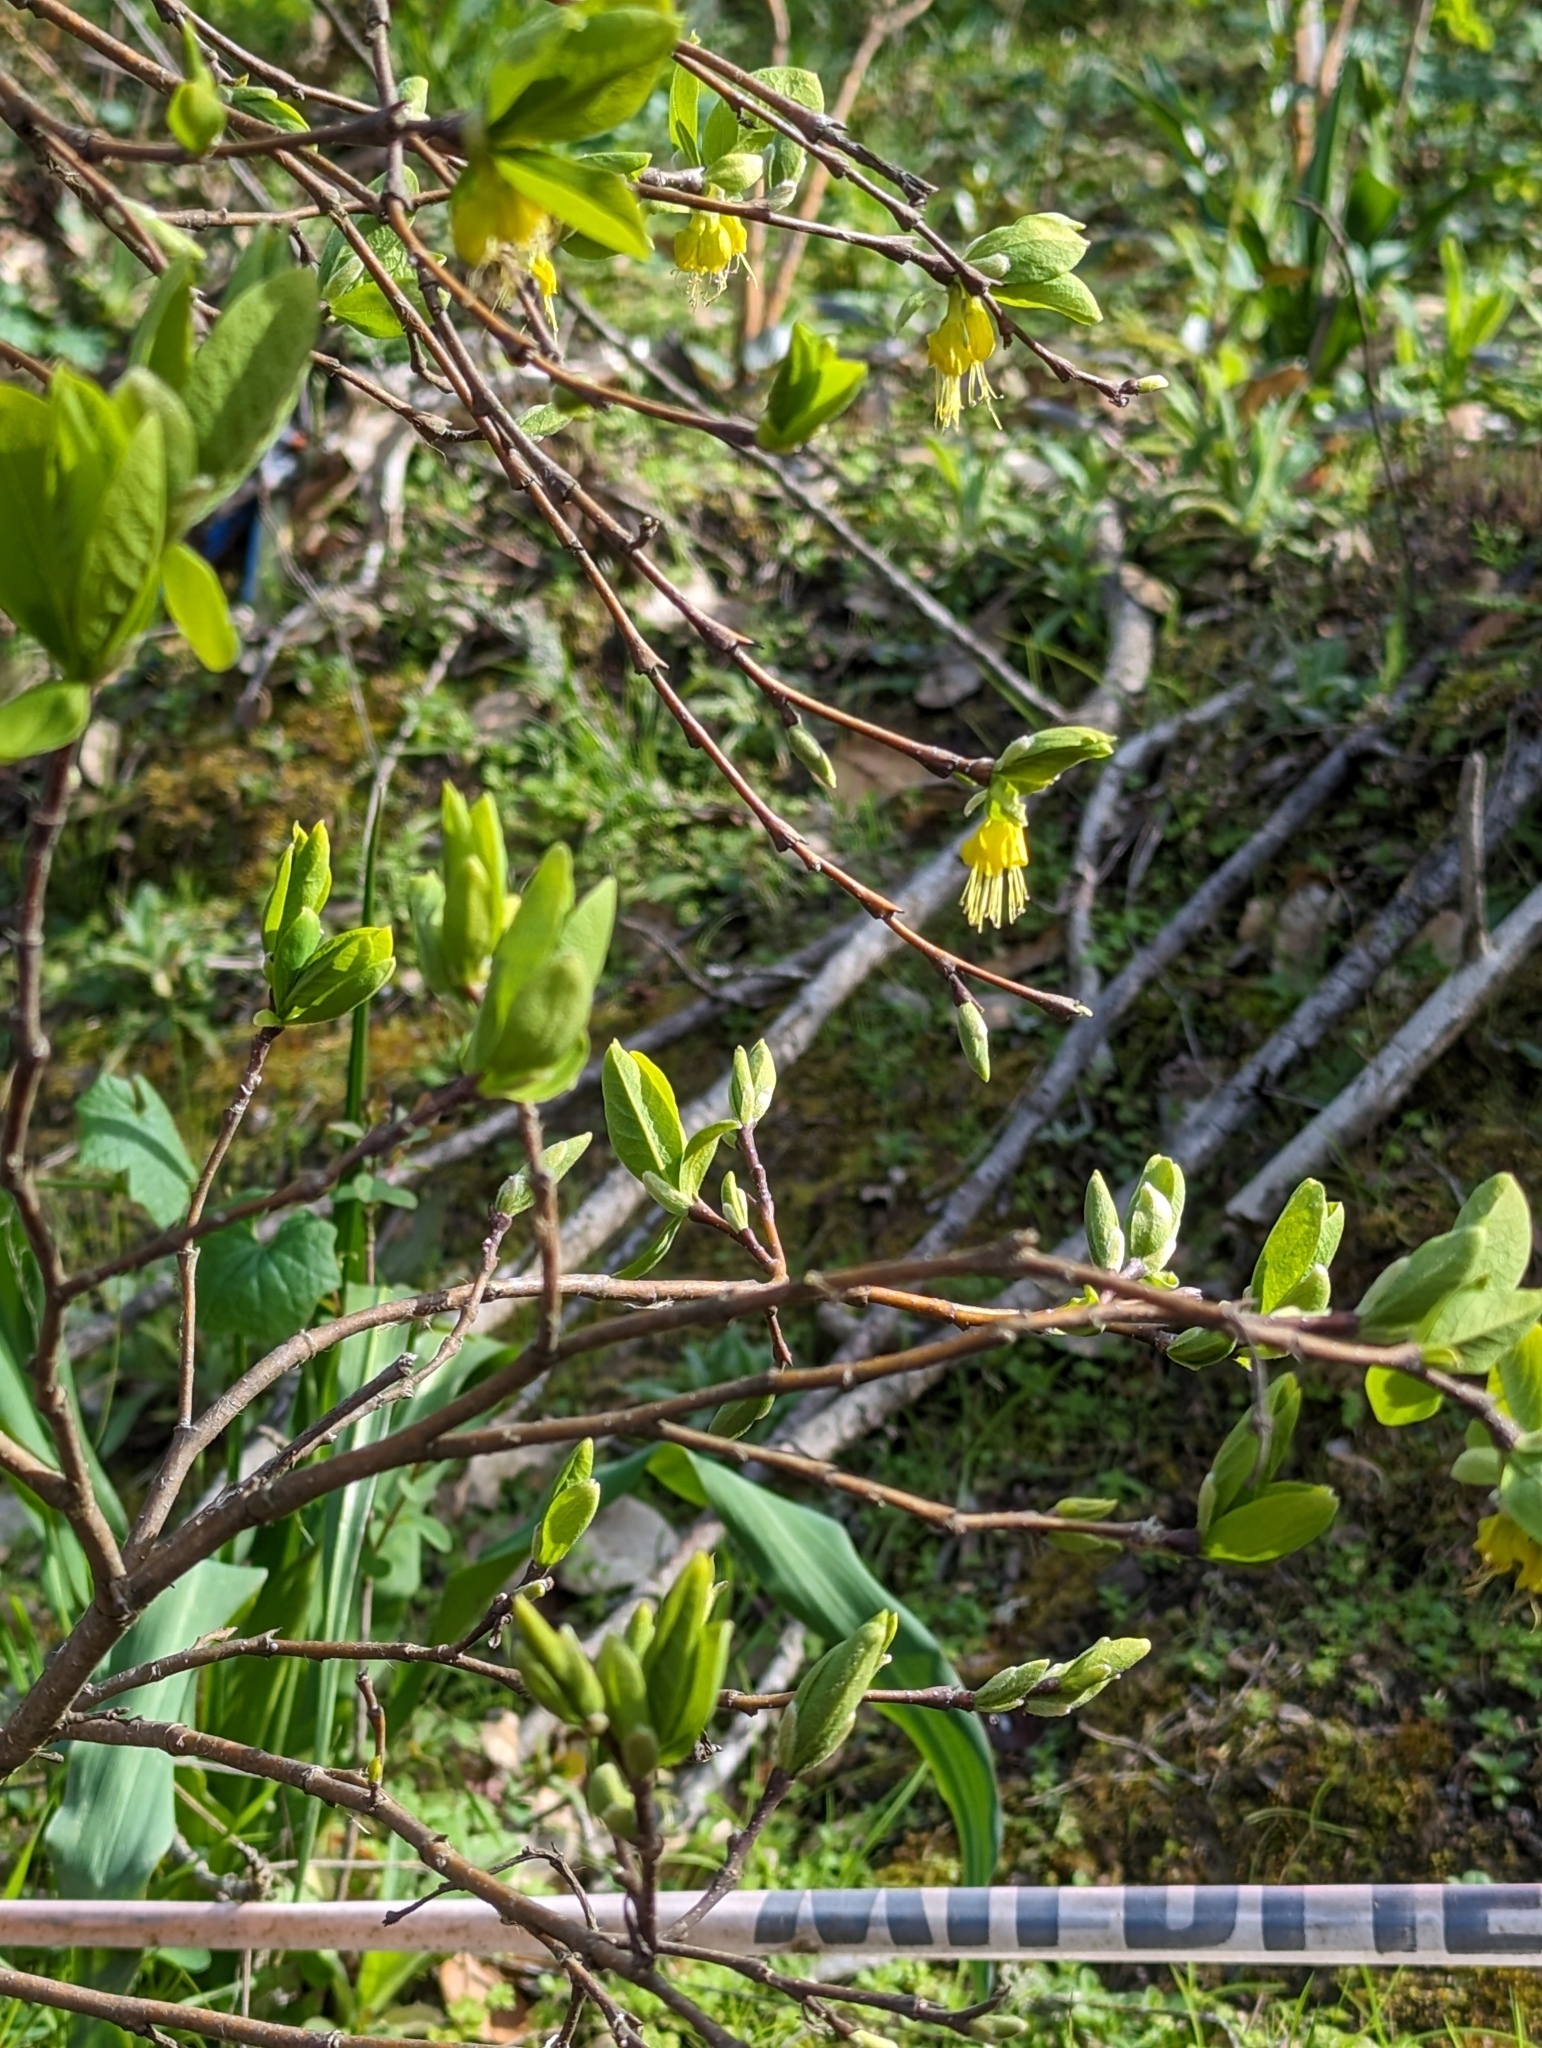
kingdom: Plantae
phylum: Tracheophyta
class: Magnoliopsida
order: Malvales
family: Thymelaeaceae
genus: Dirca
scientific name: Dirca occidentalis
